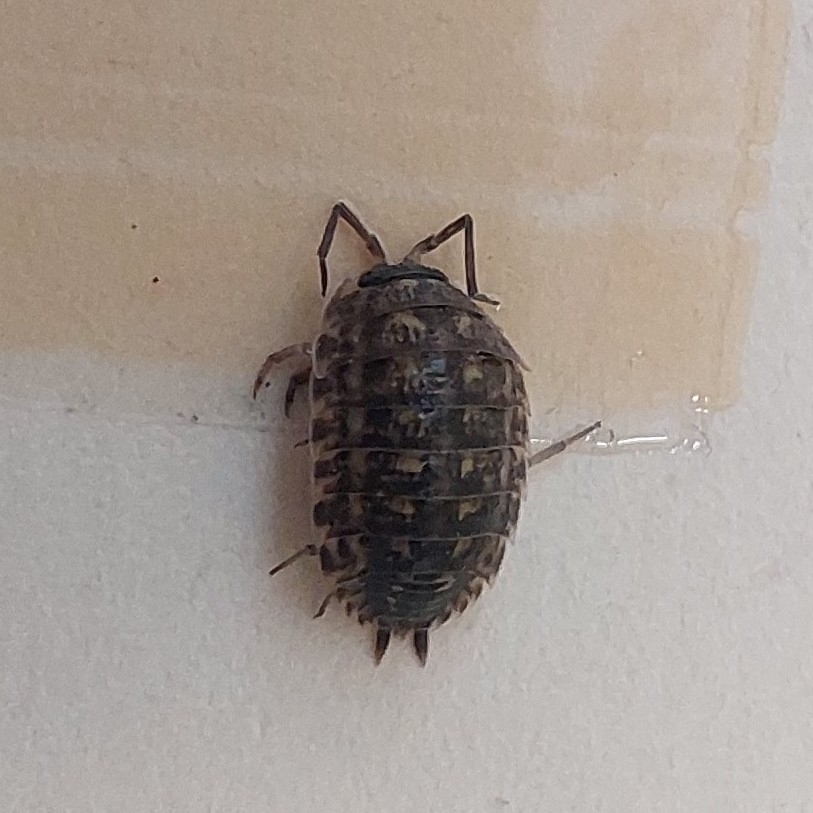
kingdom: Animalia
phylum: Arthropoda
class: Malacostraca
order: Isopoda
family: Porcellionidae
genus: Porcellio
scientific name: Porcellio spinicornis
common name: Painted woodlouse
